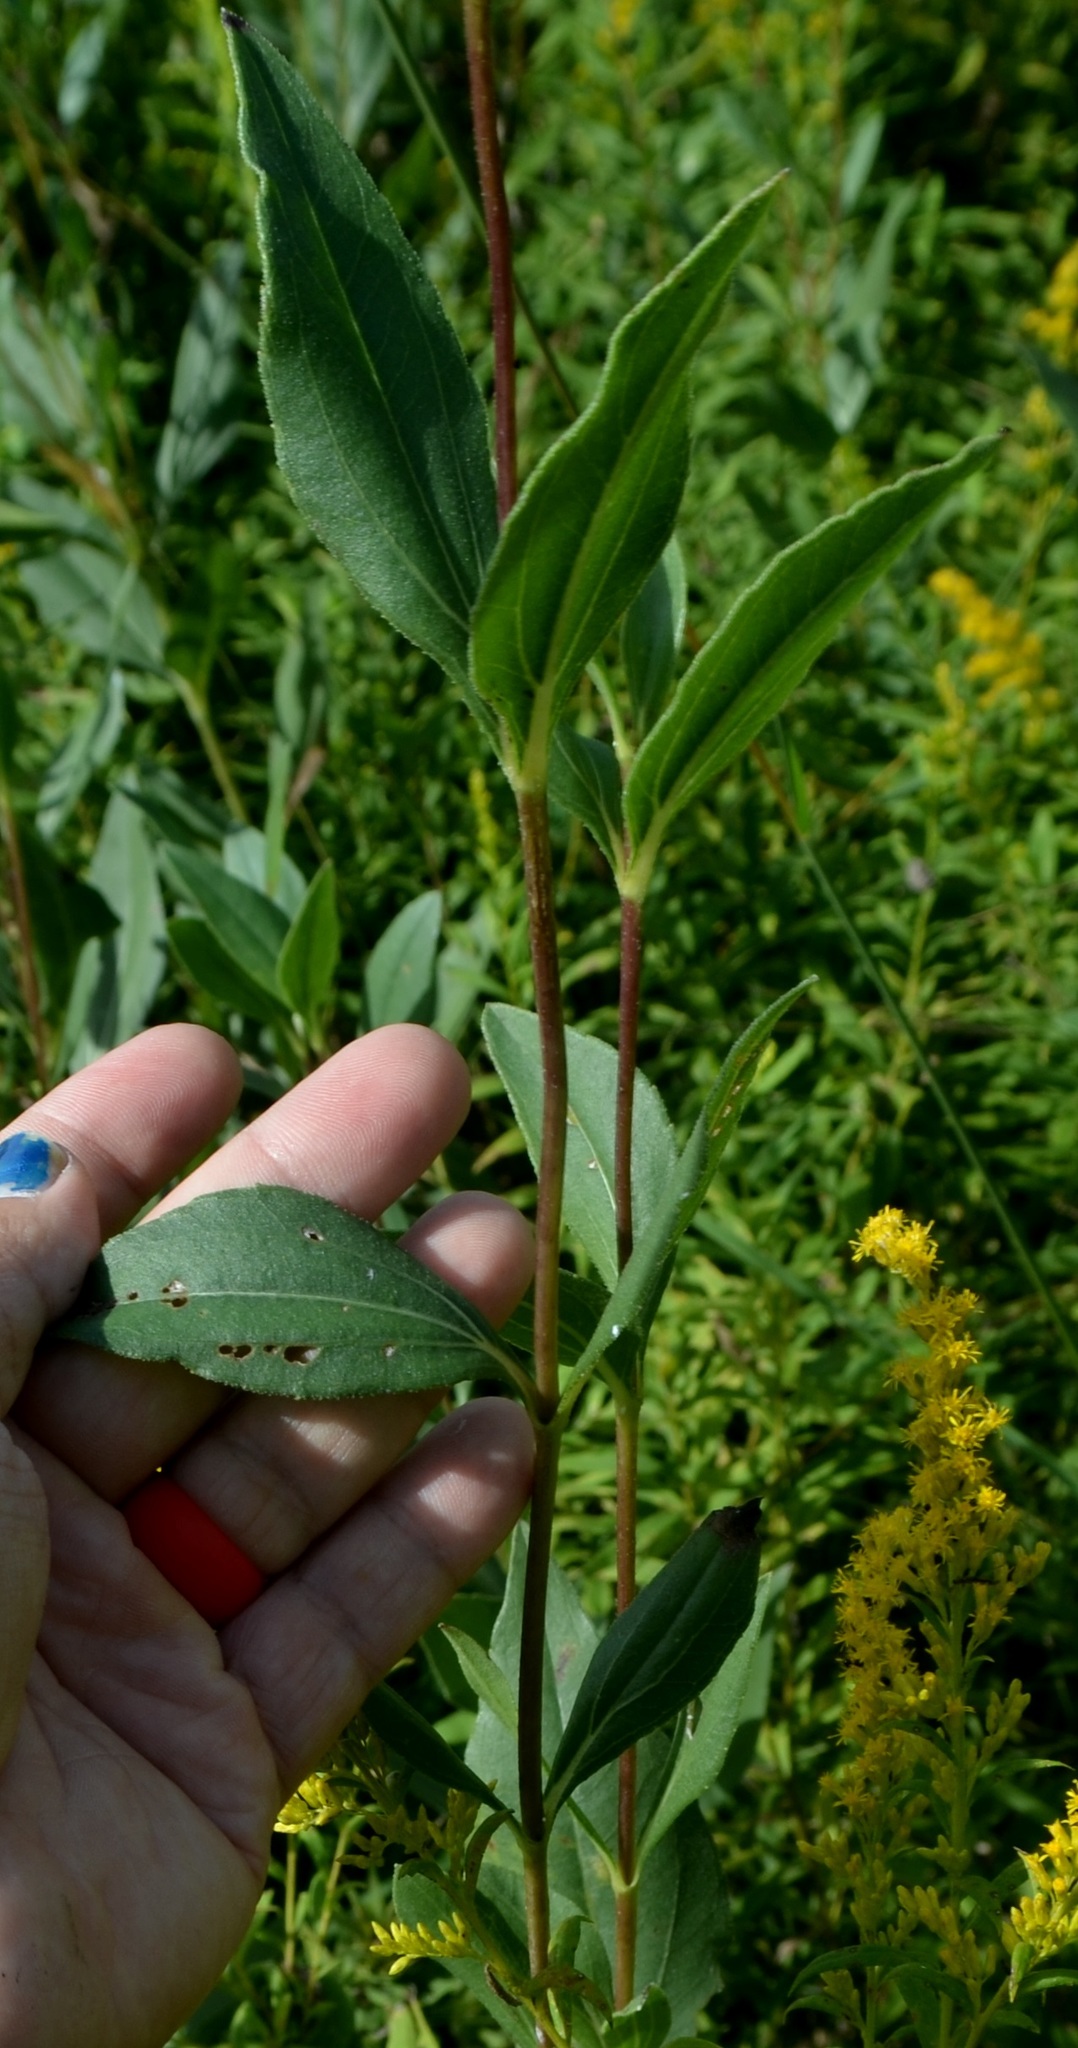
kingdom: Plantae
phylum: Tracheophyta
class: Magnoliopsida
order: Asterales
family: Asteraceae
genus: Helianthus
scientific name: Helianthus pauciflorus
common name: Stiff sunflower
